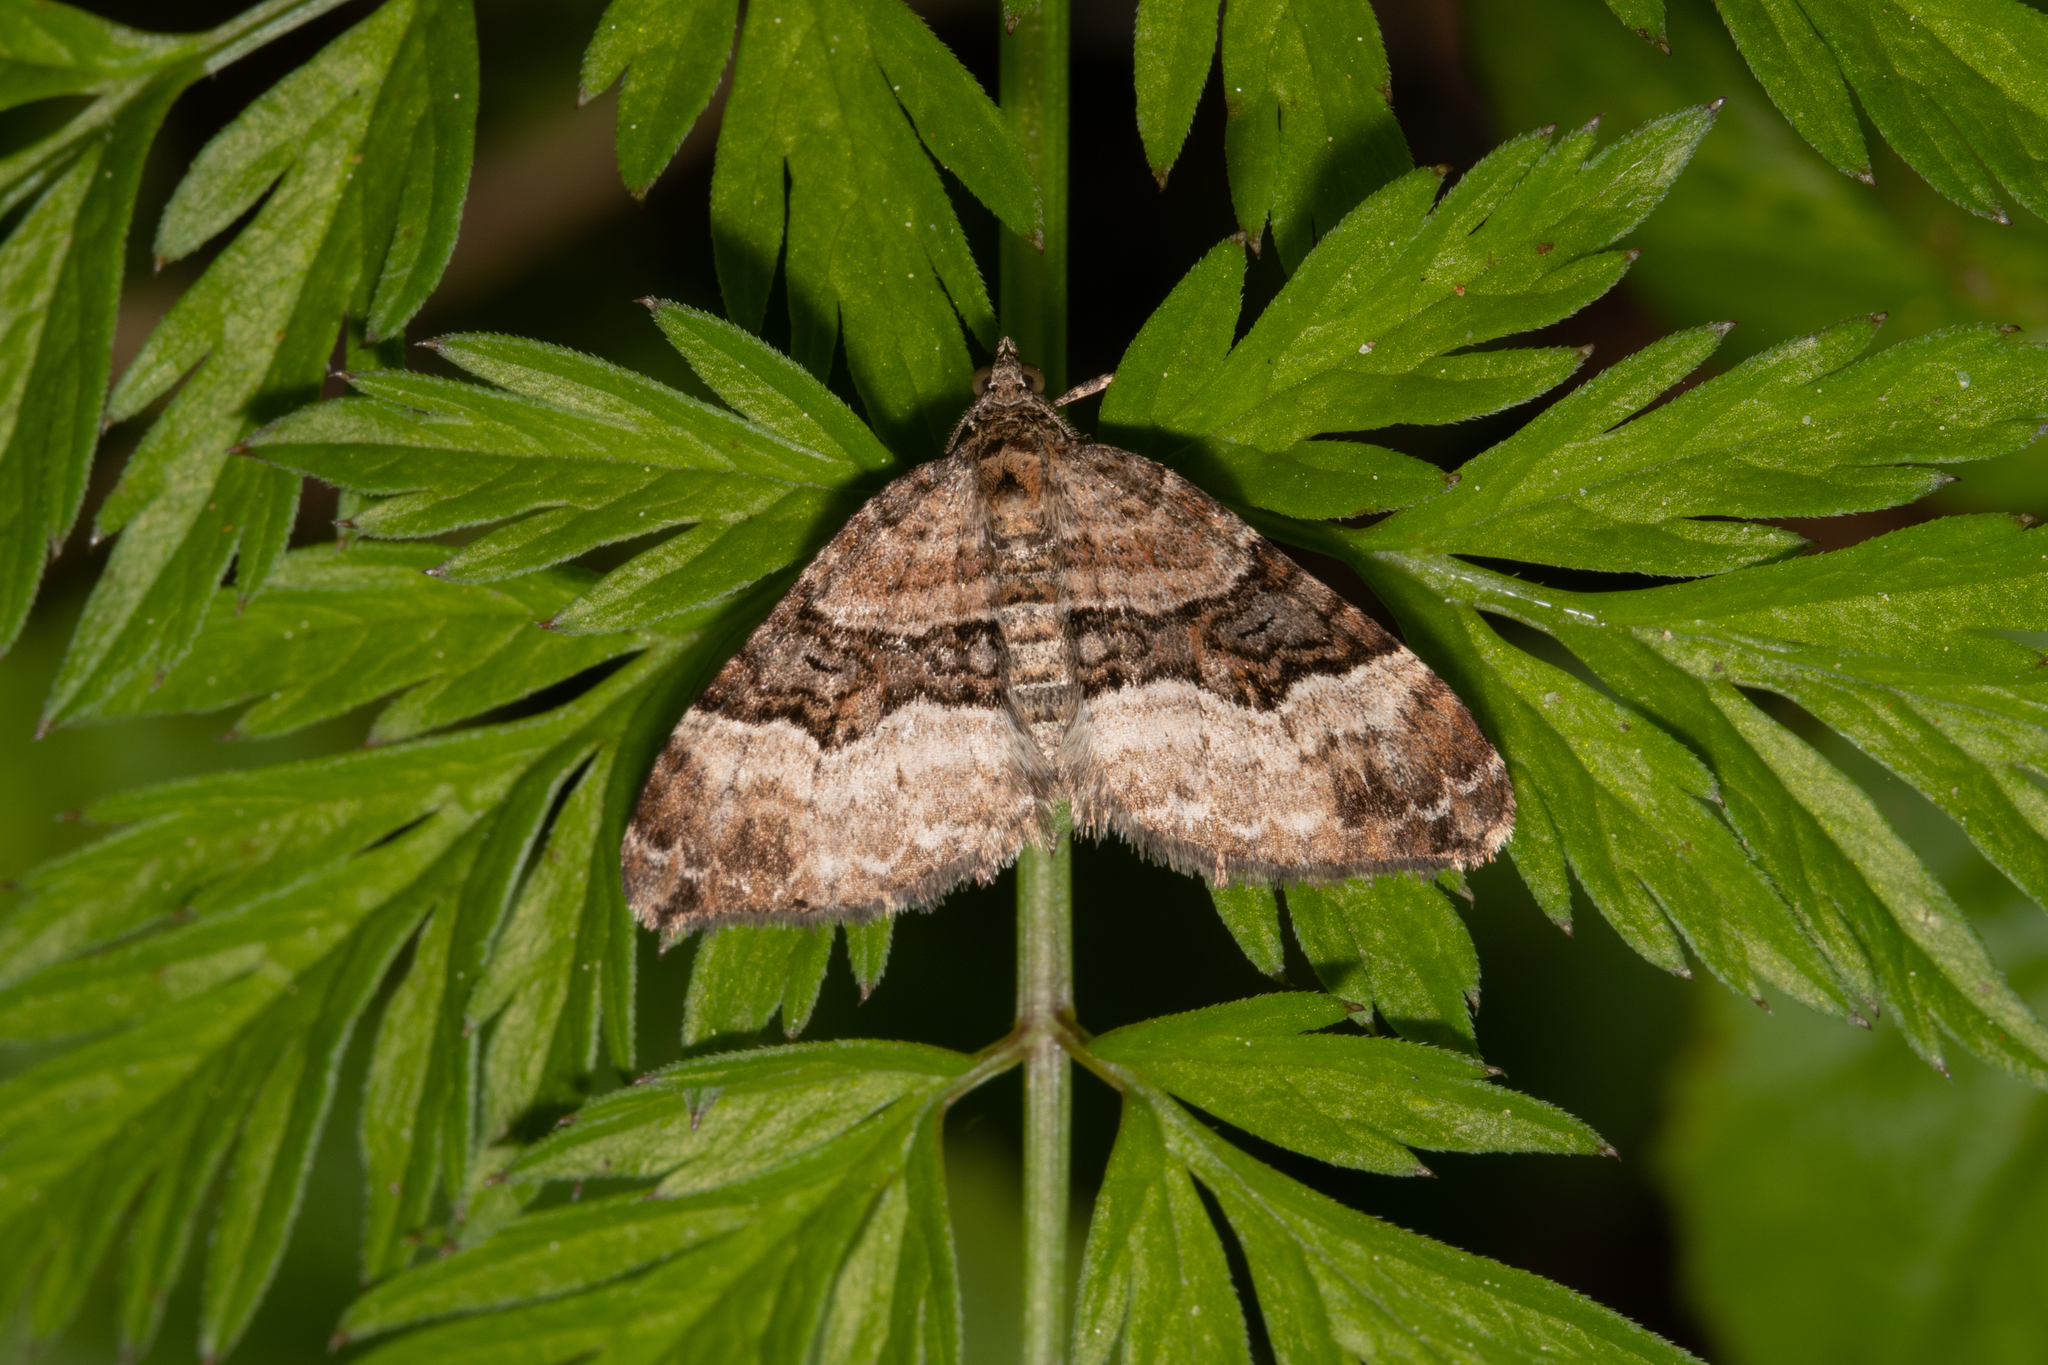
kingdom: Animalia
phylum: Arthropoda
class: Insecta
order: Lepidoptera
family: Geometridae
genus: Xanthorhoe
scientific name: Xanthorhoe biriviata
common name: Balsam carpet
